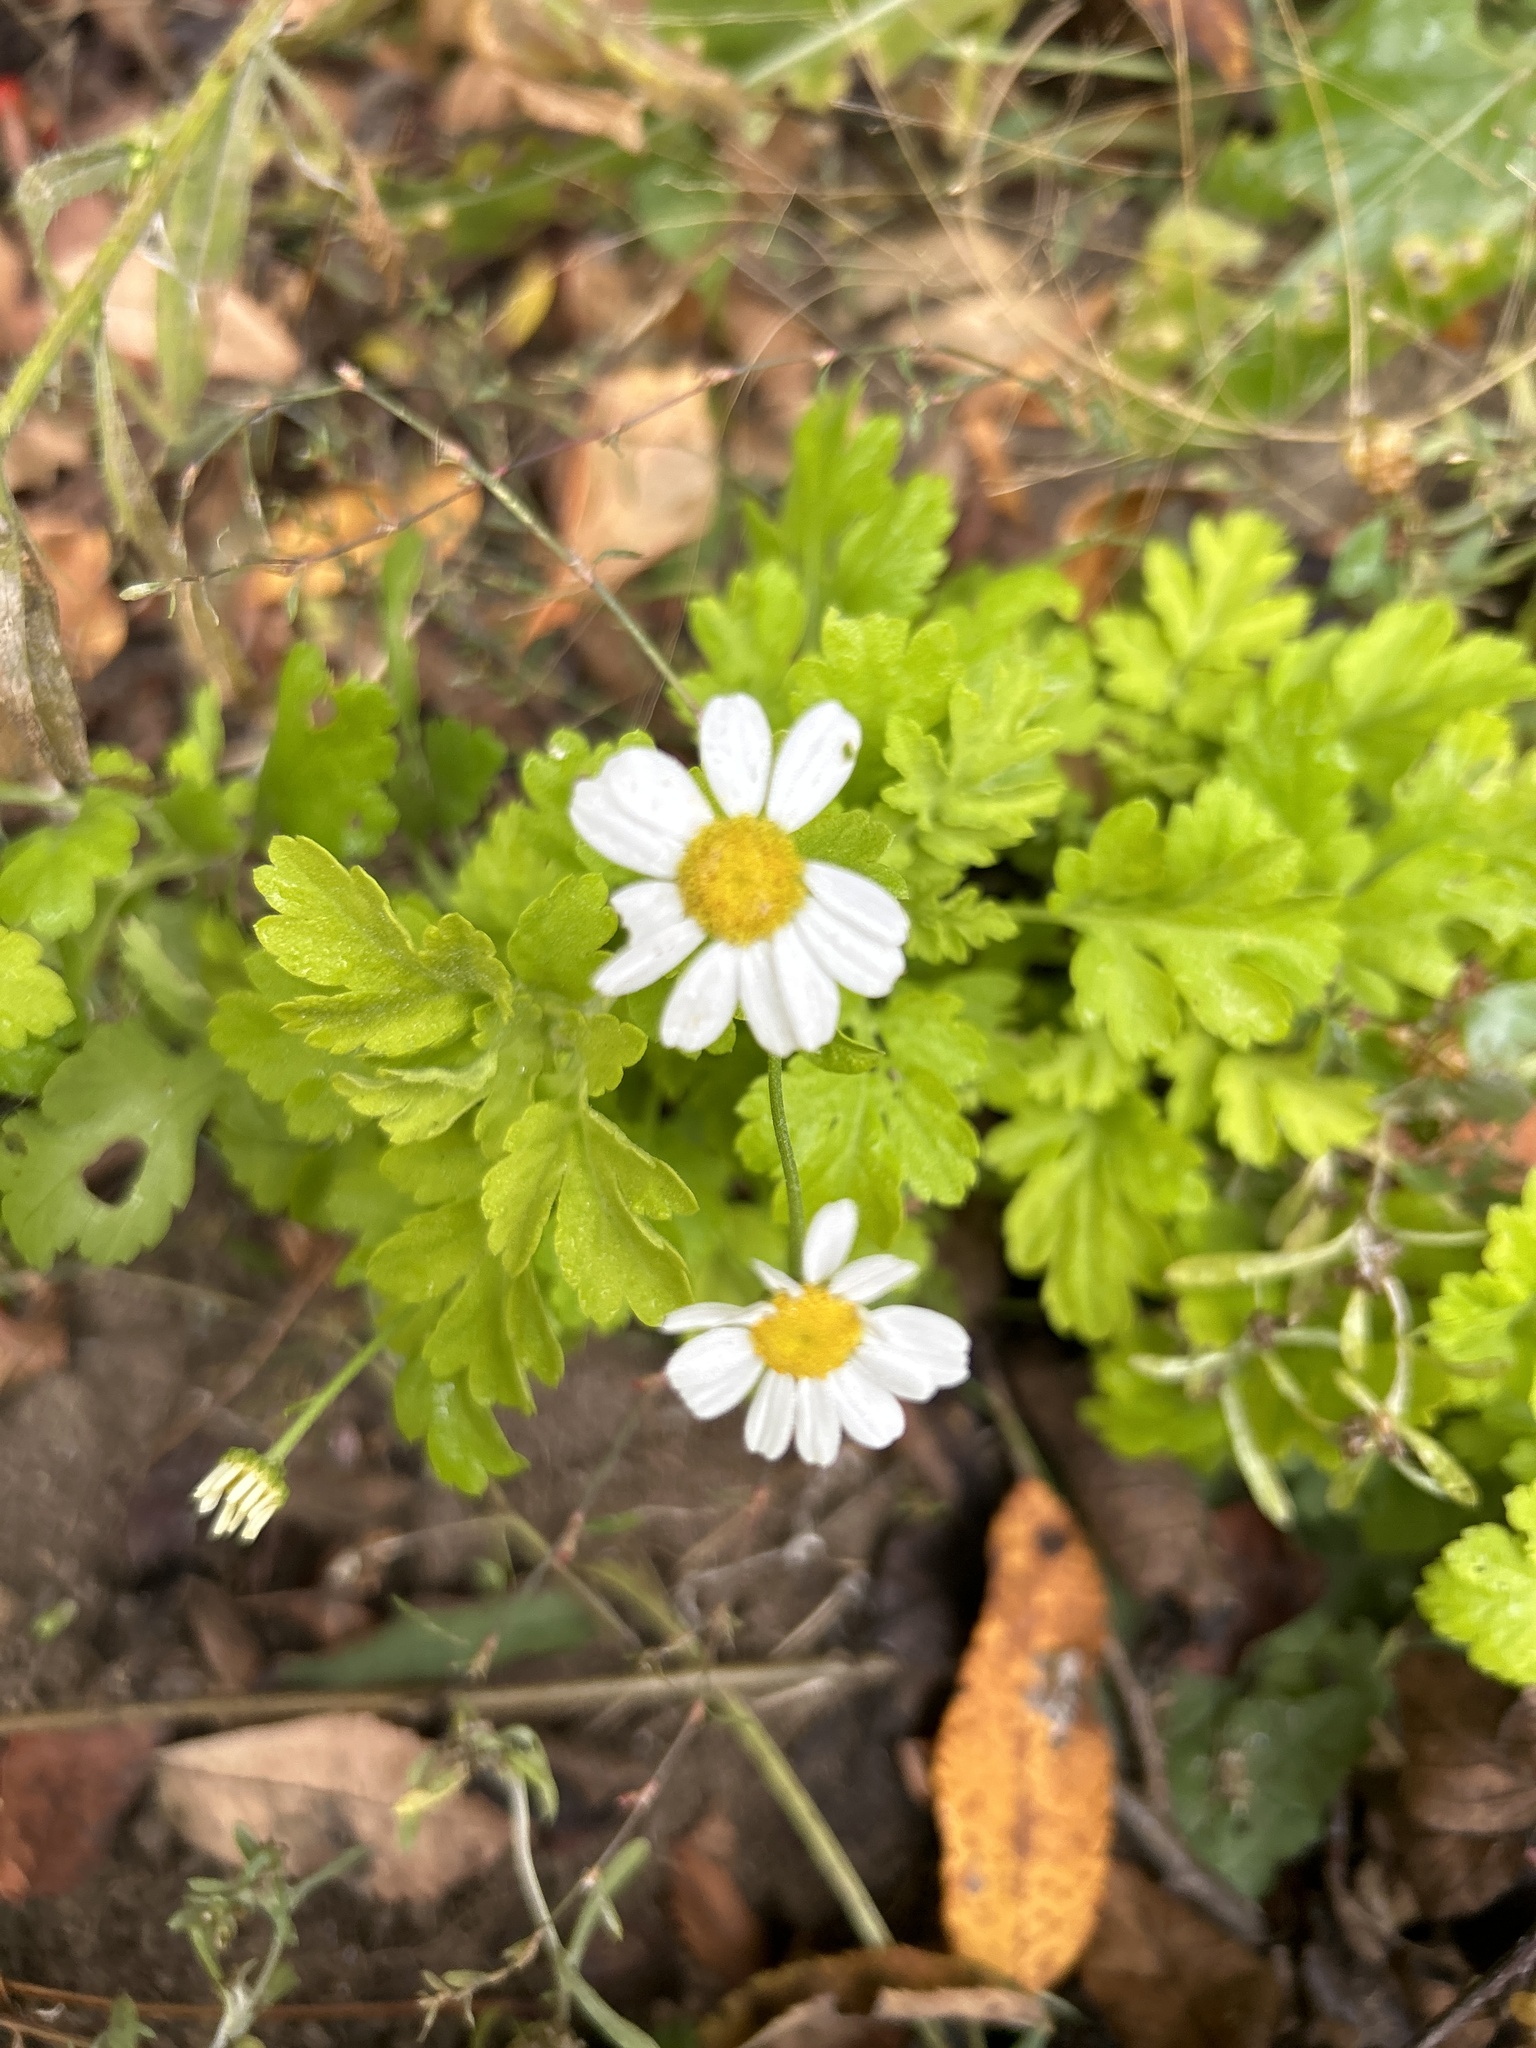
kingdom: Plantae
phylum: Tracheophyta
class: Magnoliopsida
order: Asterales
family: Asteraceae
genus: Tanacetum
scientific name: Tanacetum parthenium
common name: Feverfew
